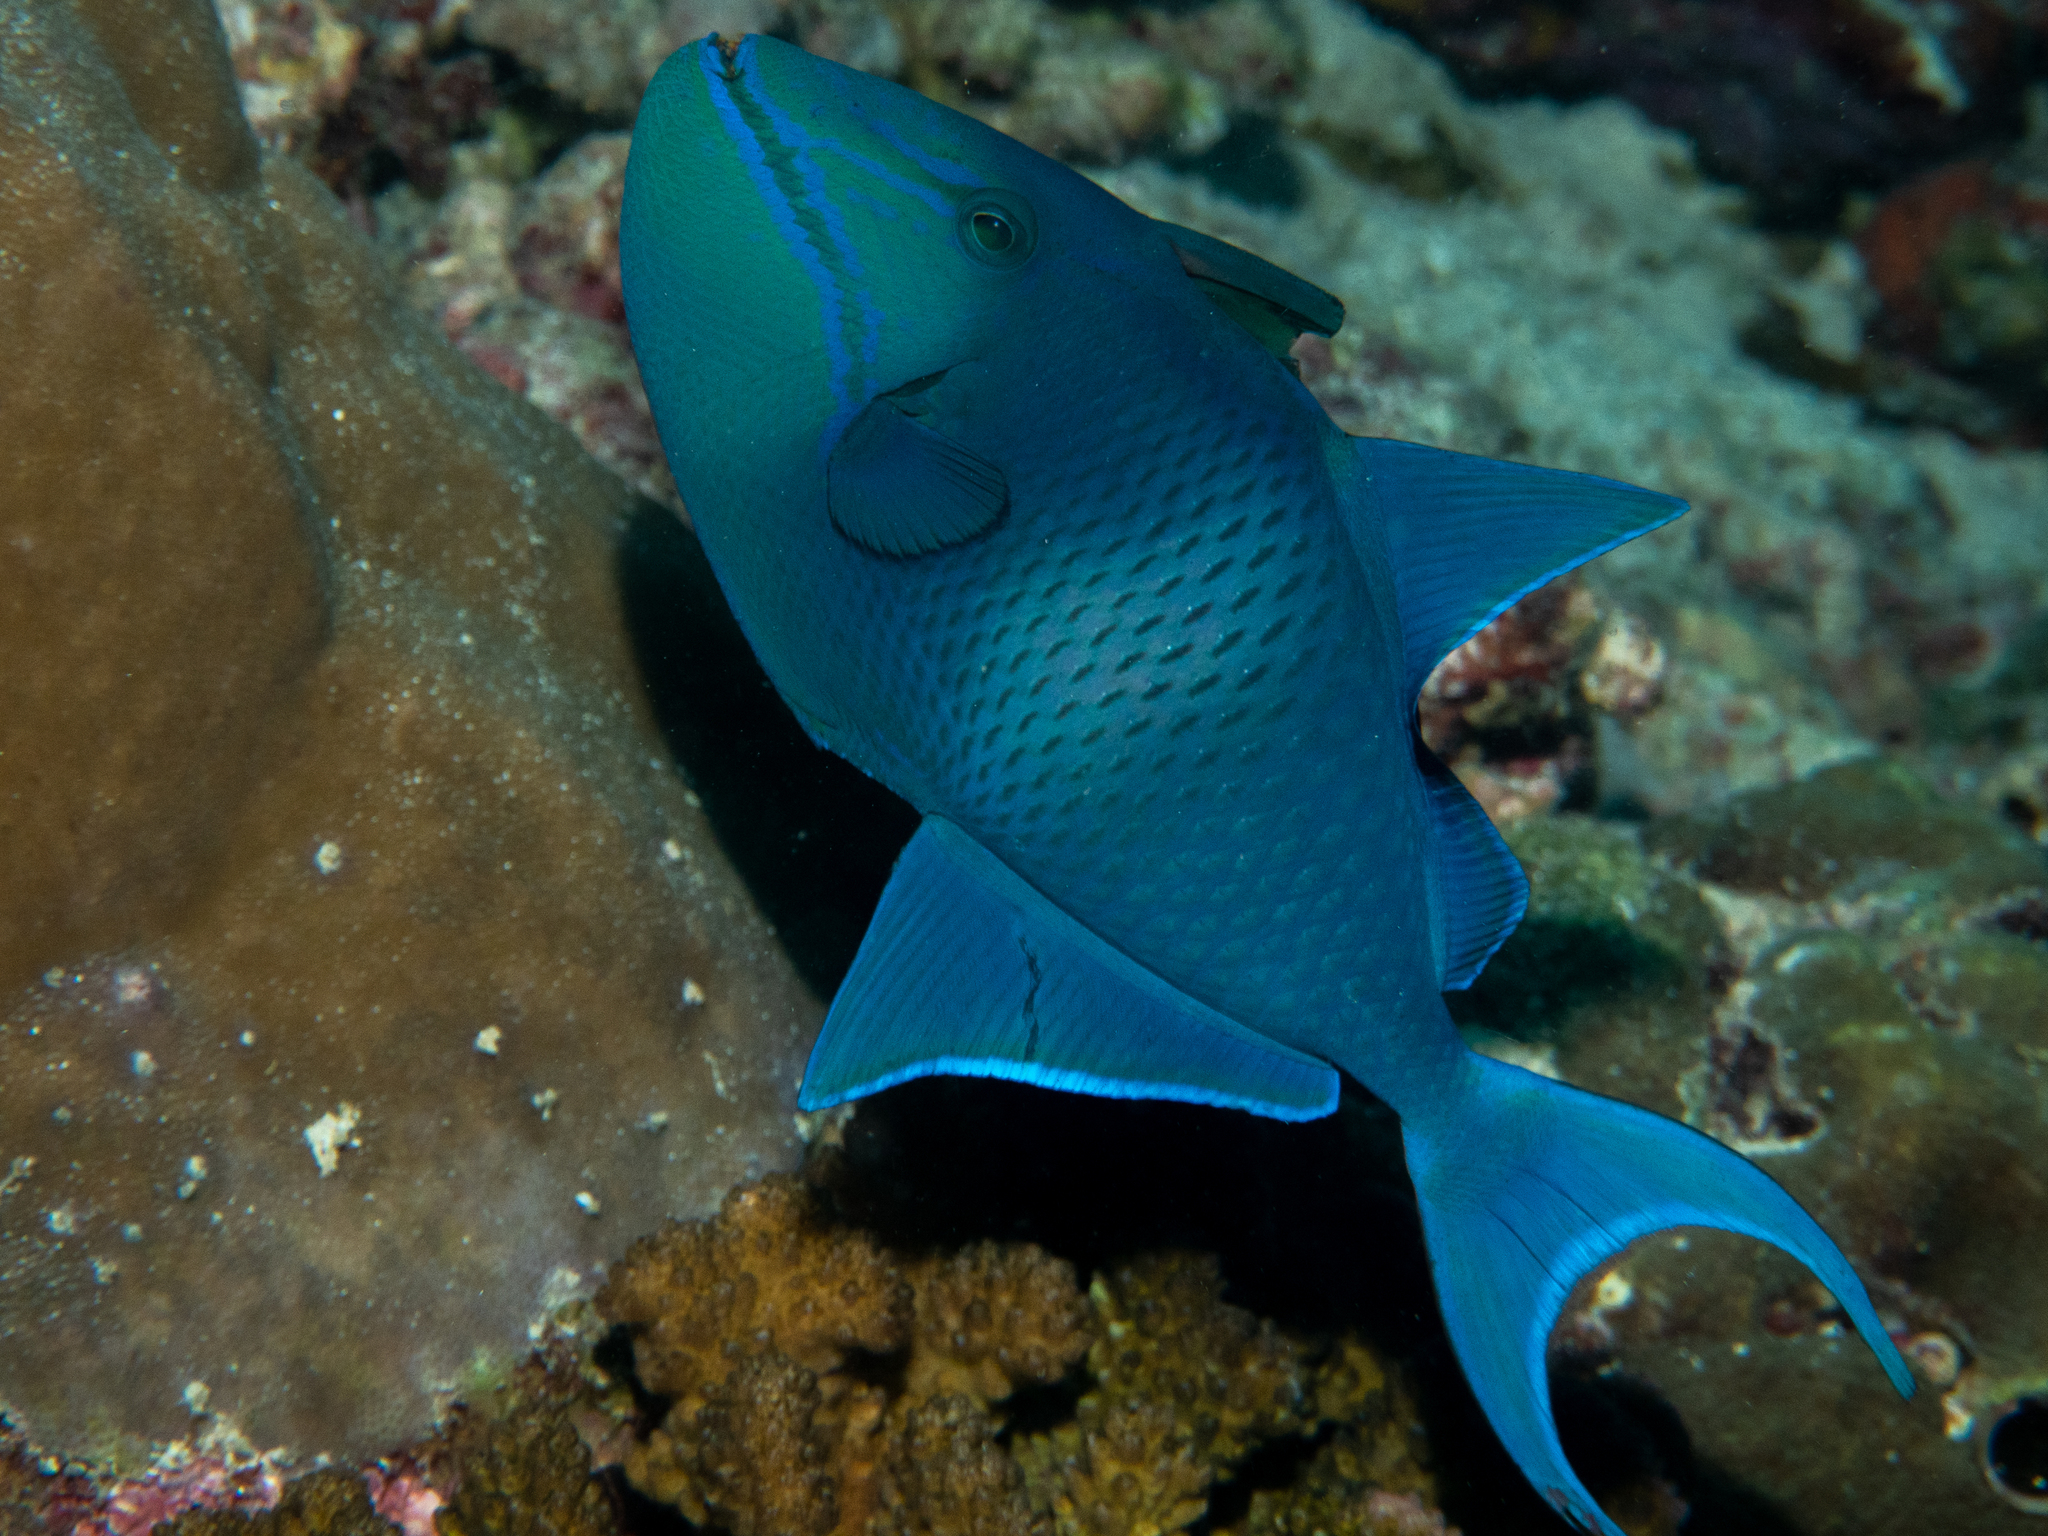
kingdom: Animalia
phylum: Chordata
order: Tetraodontiformes
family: Balistidae
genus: Odonus
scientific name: Odonus niger
